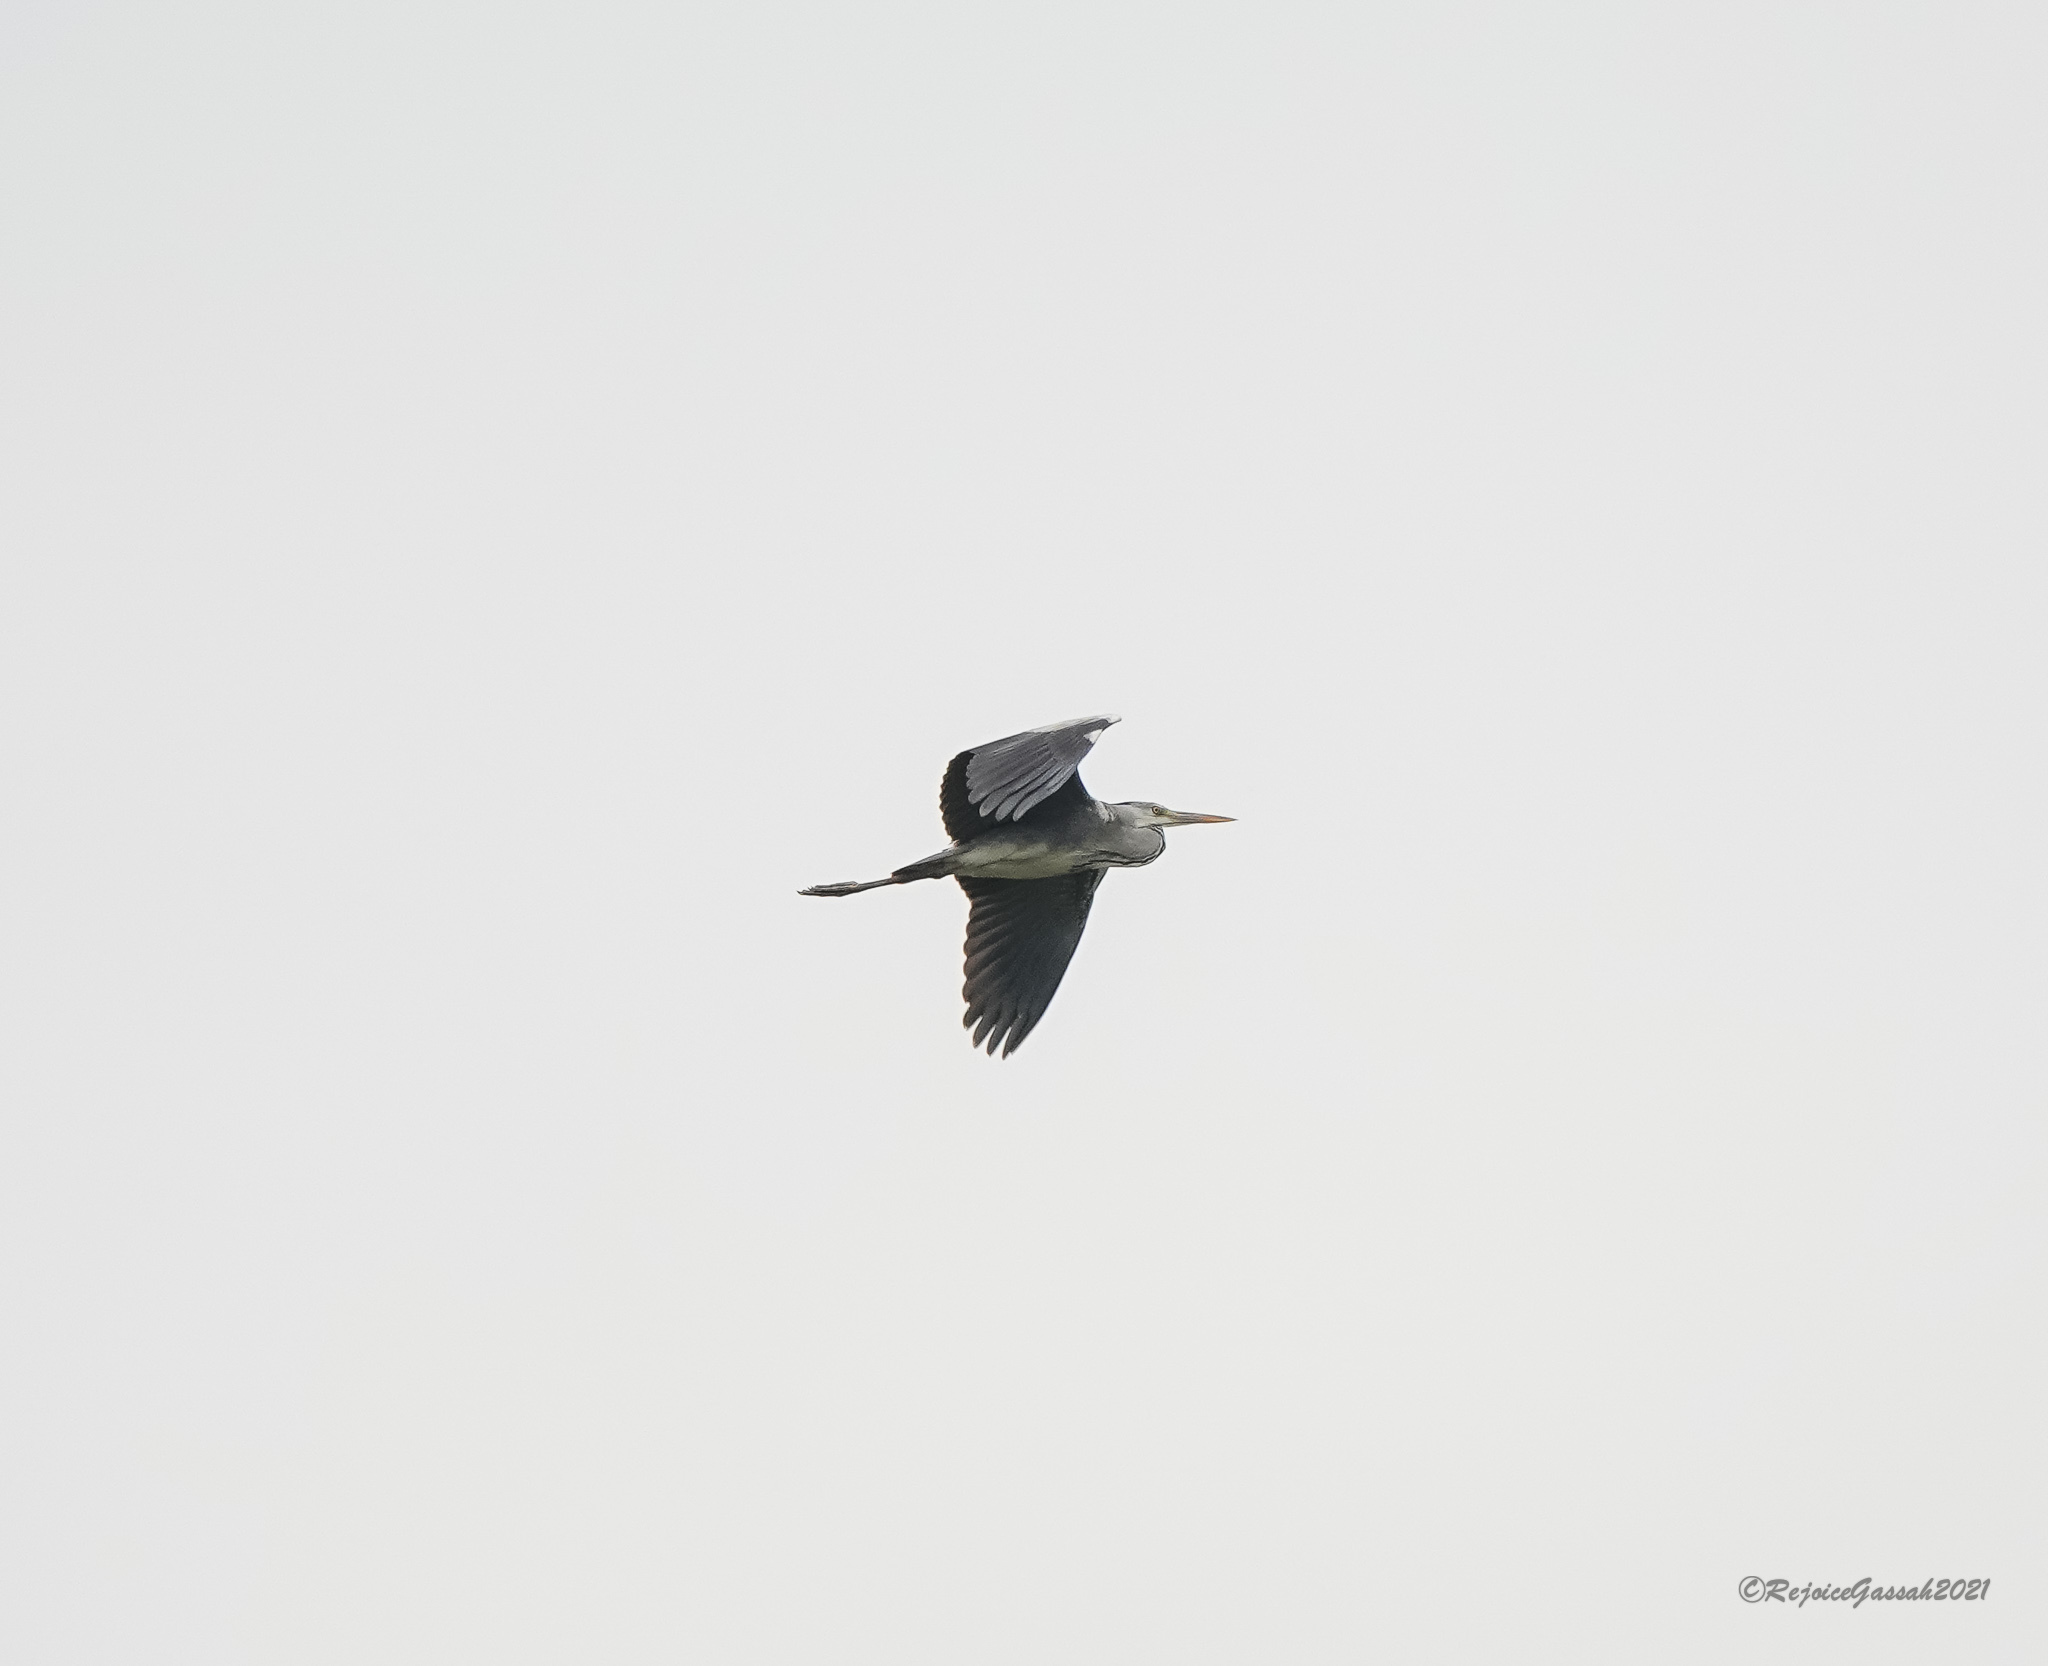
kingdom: Animalia
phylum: Chordata
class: Aves
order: Pelecaniformes
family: Ardeidae
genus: Ardea
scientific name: Ardea cinerea
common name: Grey heron
